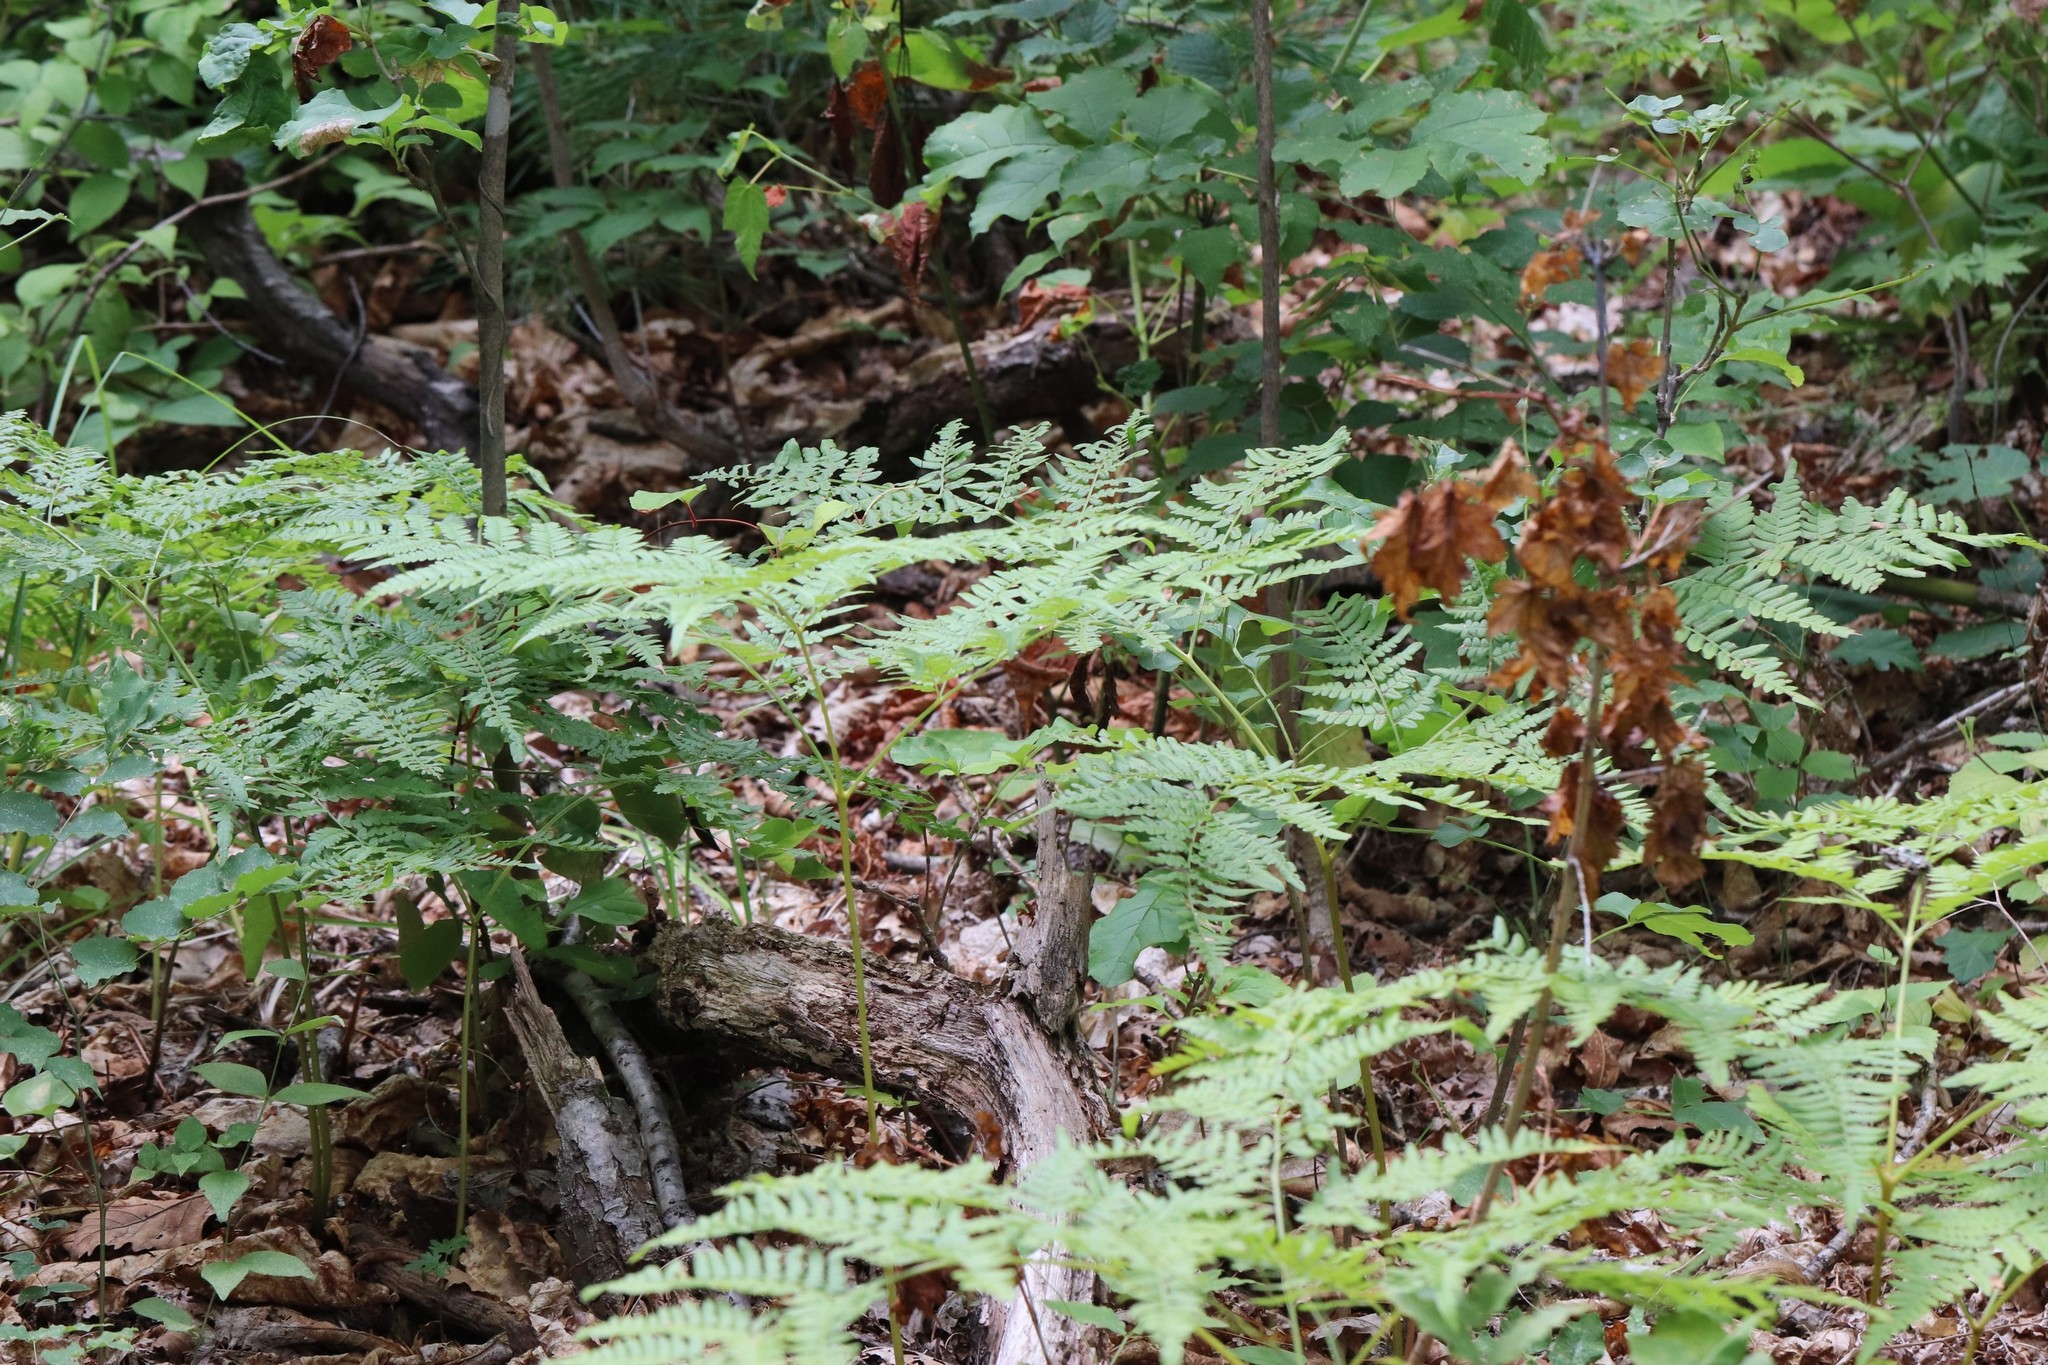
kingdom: Plantae
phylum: Tracheophyta
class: Polypodiopsida
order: Polypodiales
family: Dennstaedtiaceae
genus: Pteridium
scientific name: Pteridium aquilinum
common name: Bracken
